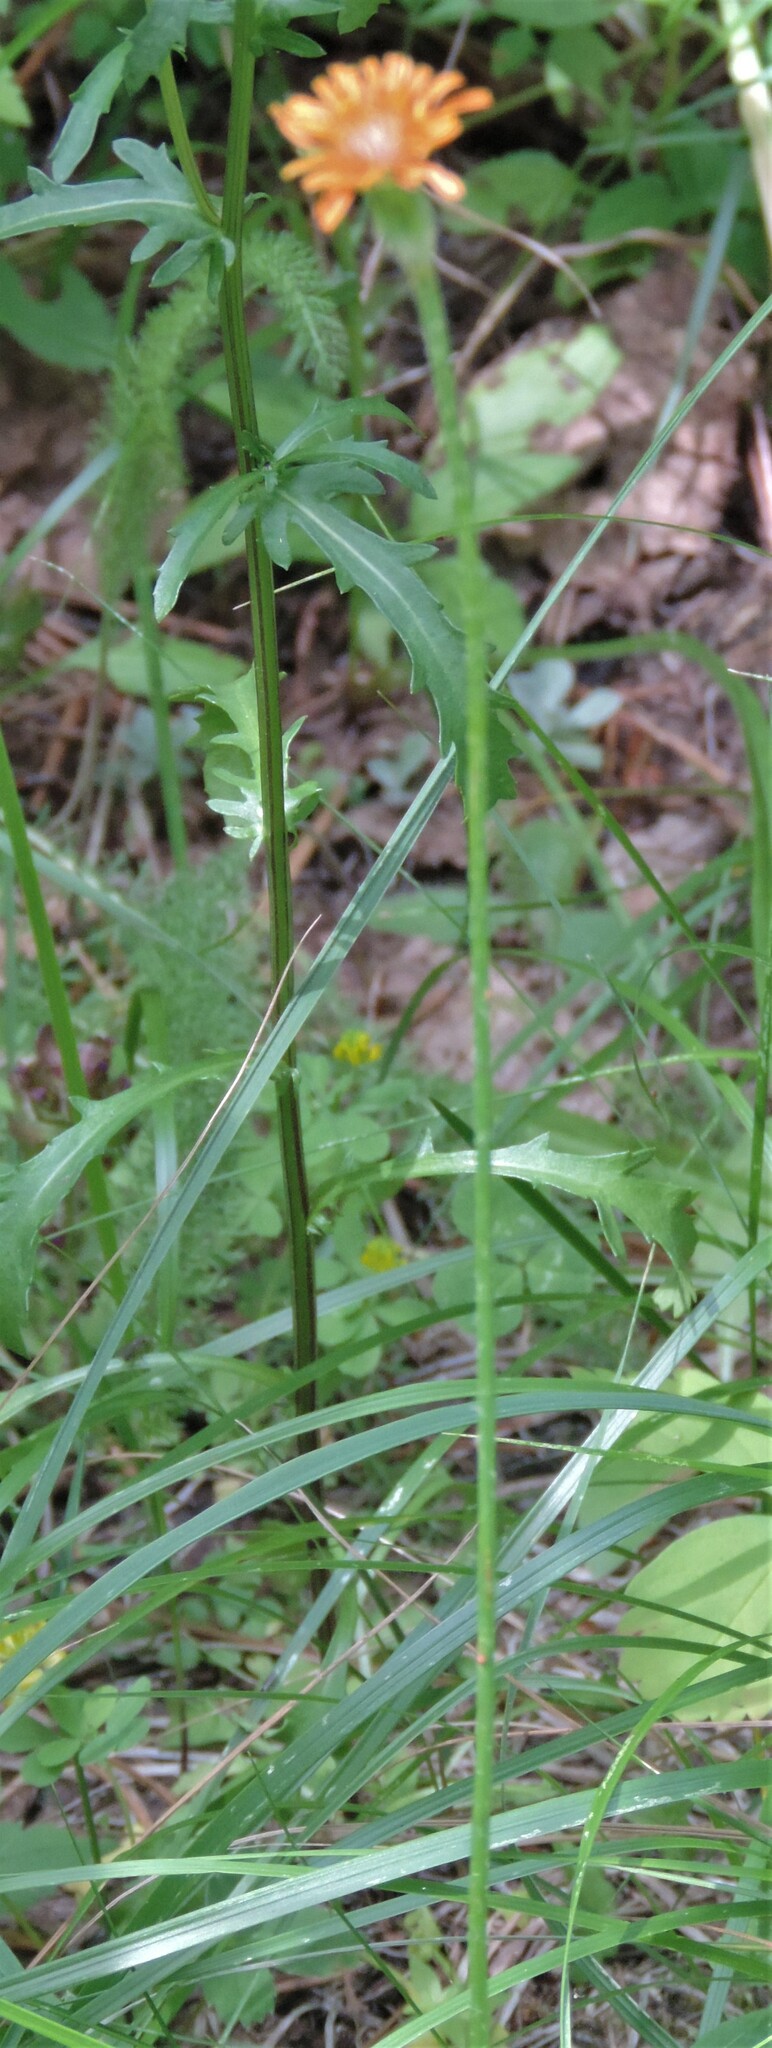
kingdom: Plantae
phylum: Tracheophyta
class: Magnoliopsida
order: Asterales
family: Asteraceae
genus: Agoseris
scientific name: Agoseris aurantiaca
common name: Mountain agoseris
